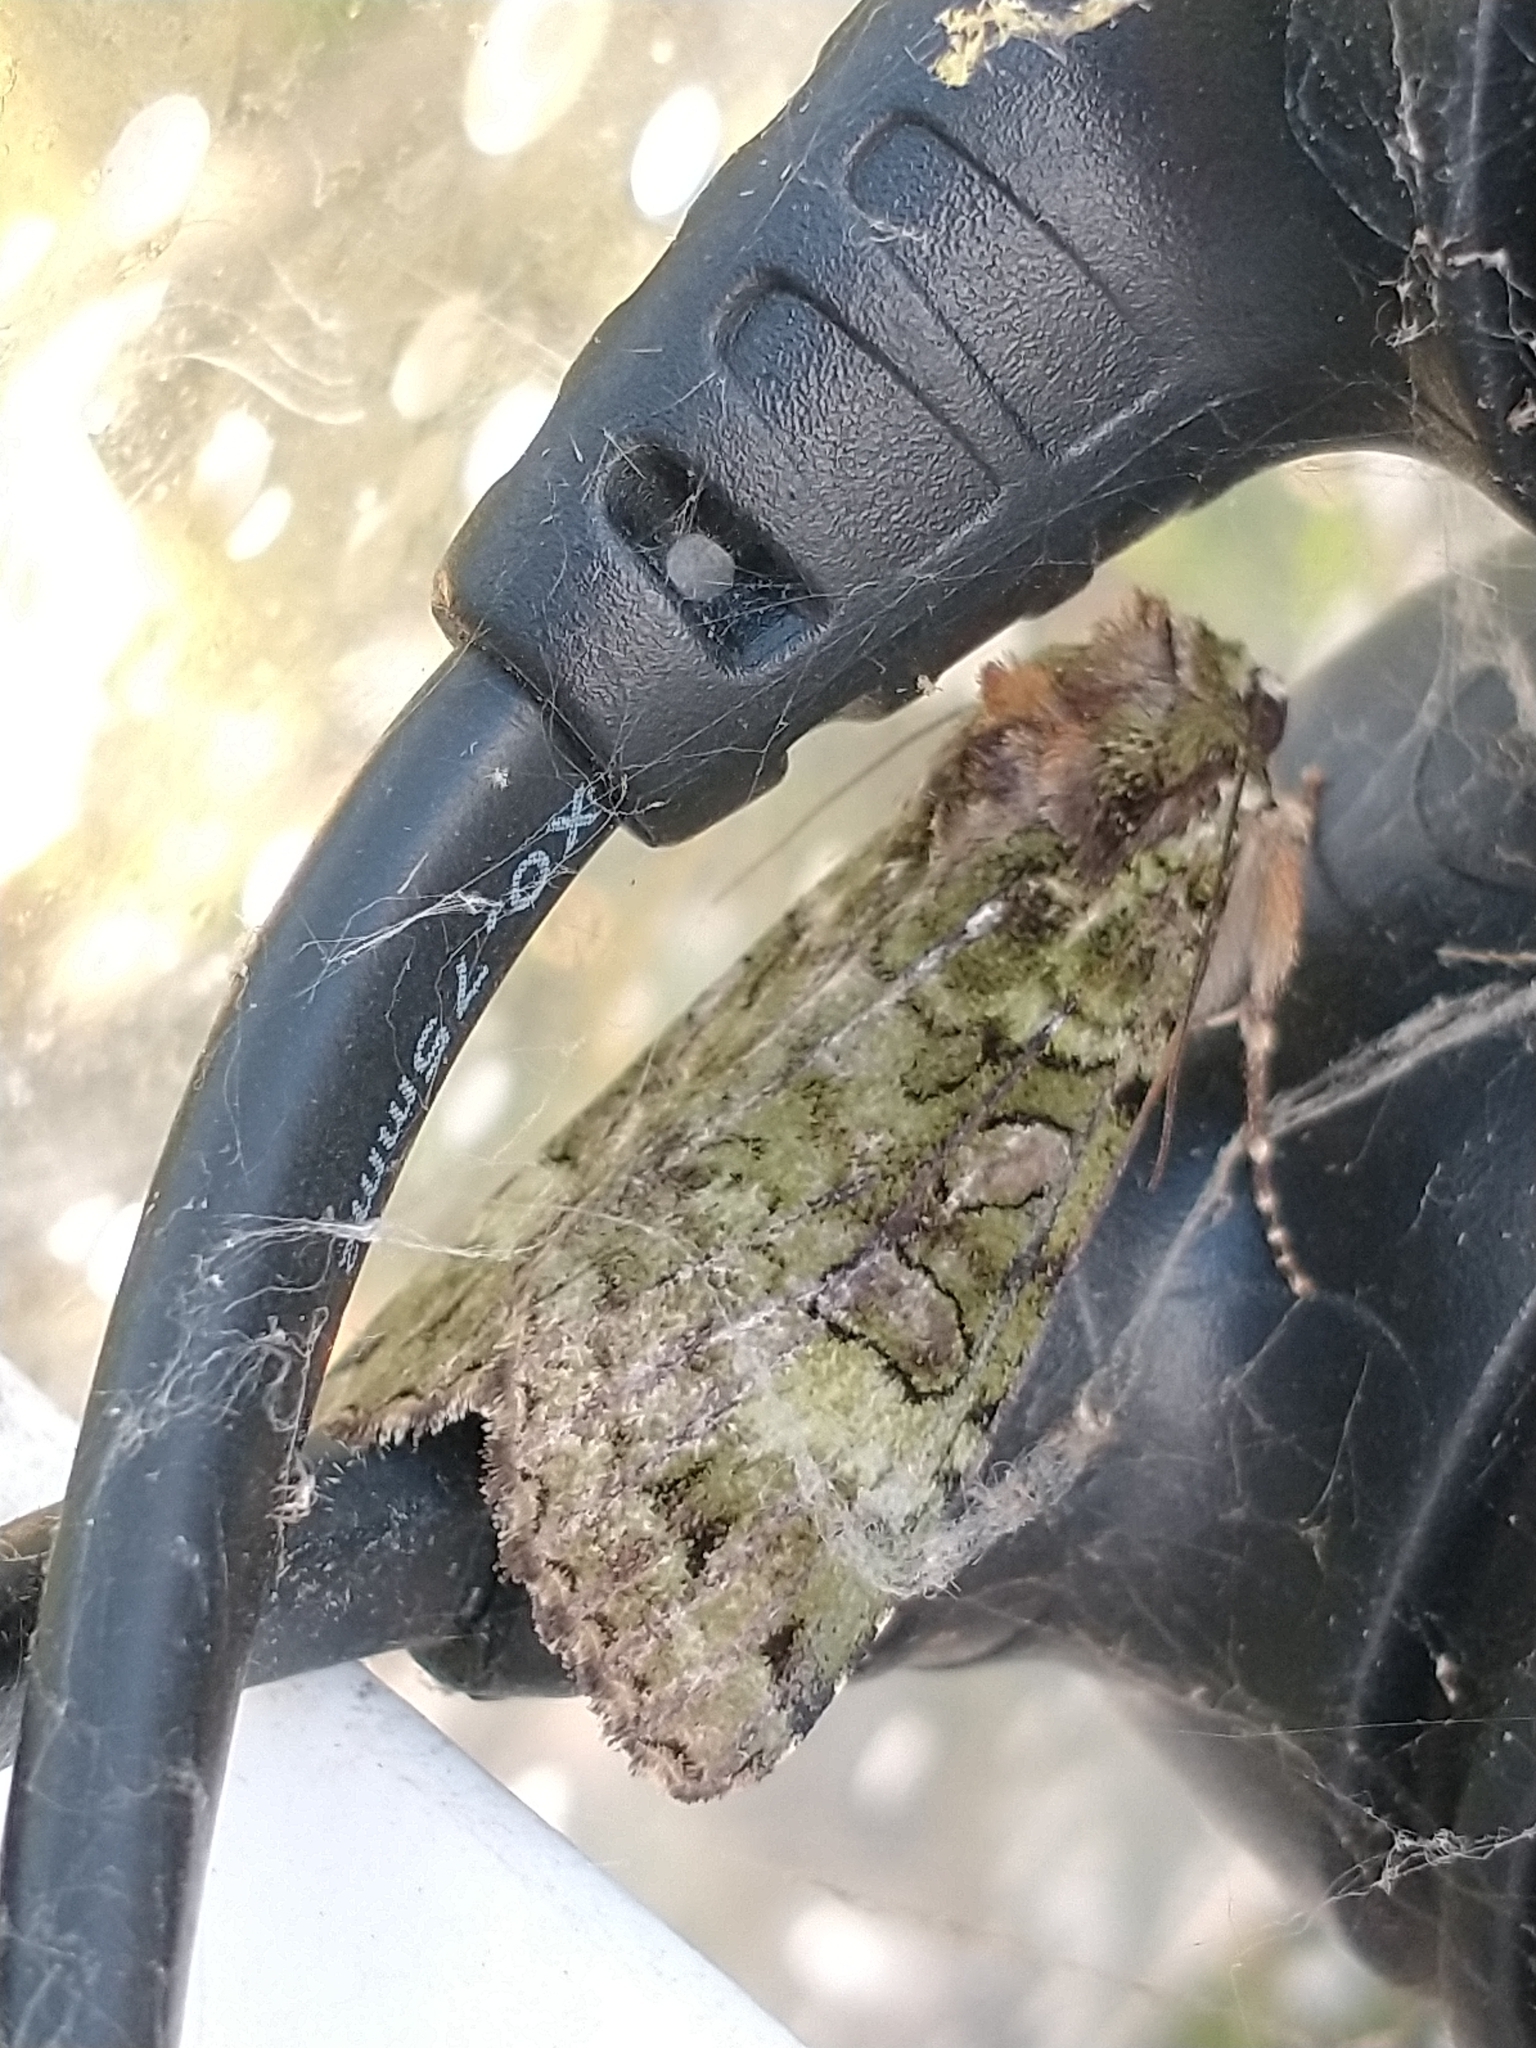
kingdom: Animalia
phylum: Arthropoda
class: Insecta
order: Lepidoptera
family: Noctuidae
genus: Anaplectoides
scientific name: Anaplectoides prasina
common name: Green arches
